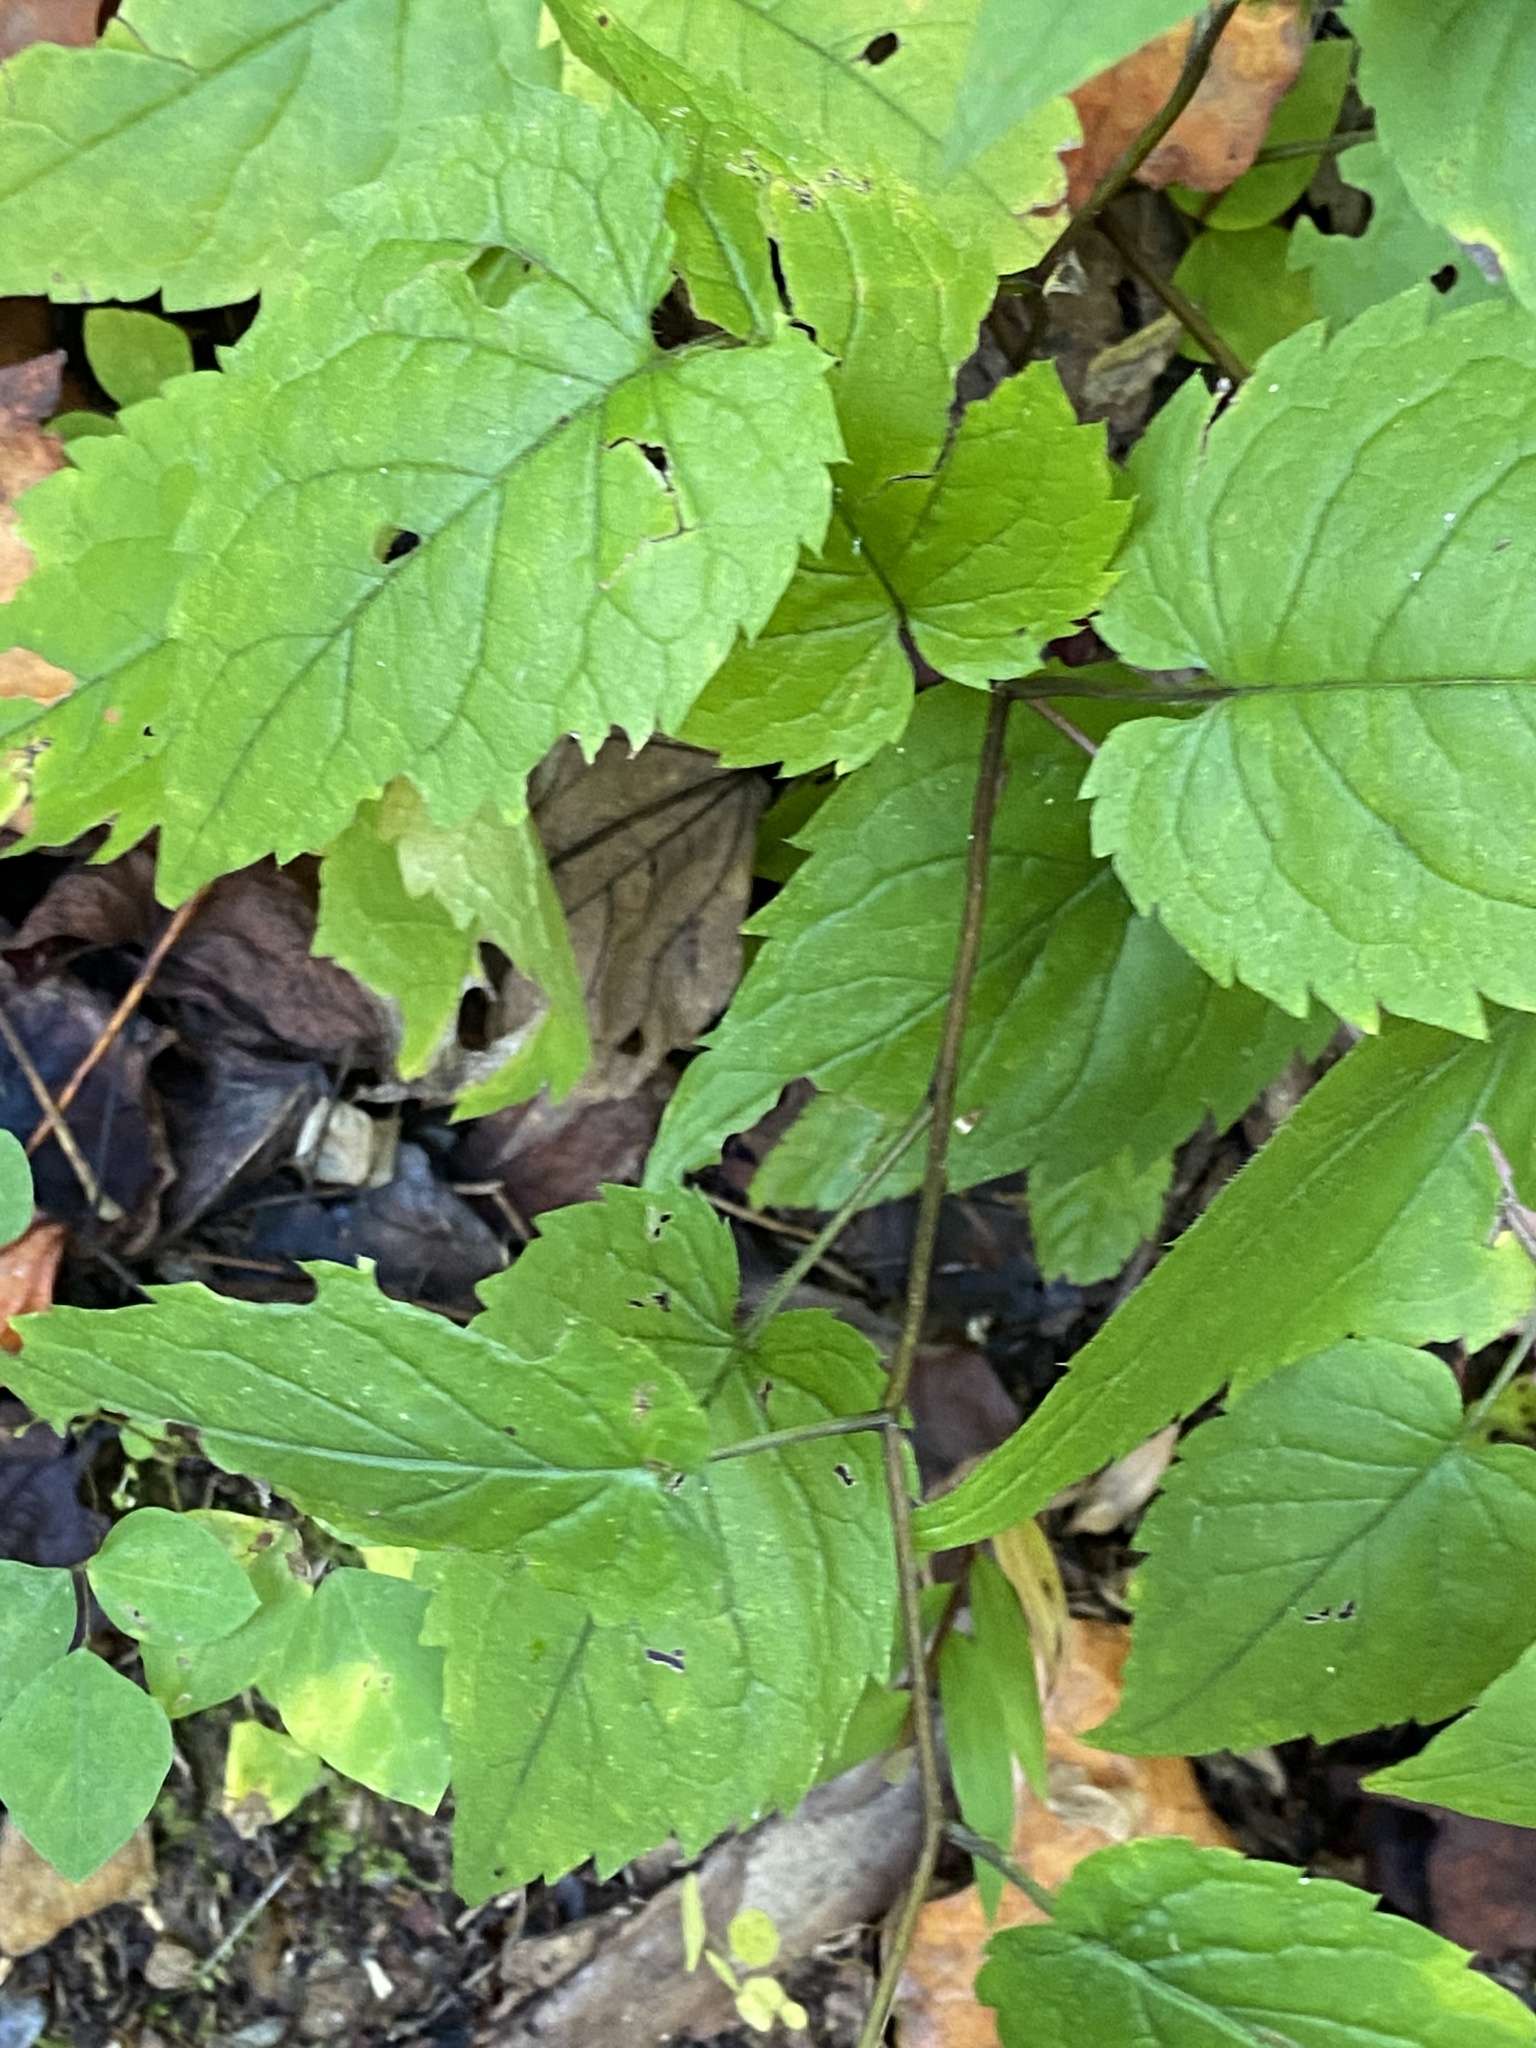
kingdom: Plantae
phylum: Tracheophyta
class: Magnoliopsida
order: Asterales
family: Asteraceae
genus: Eurybia
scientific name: Eurybia divaricata
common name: White wood aster
